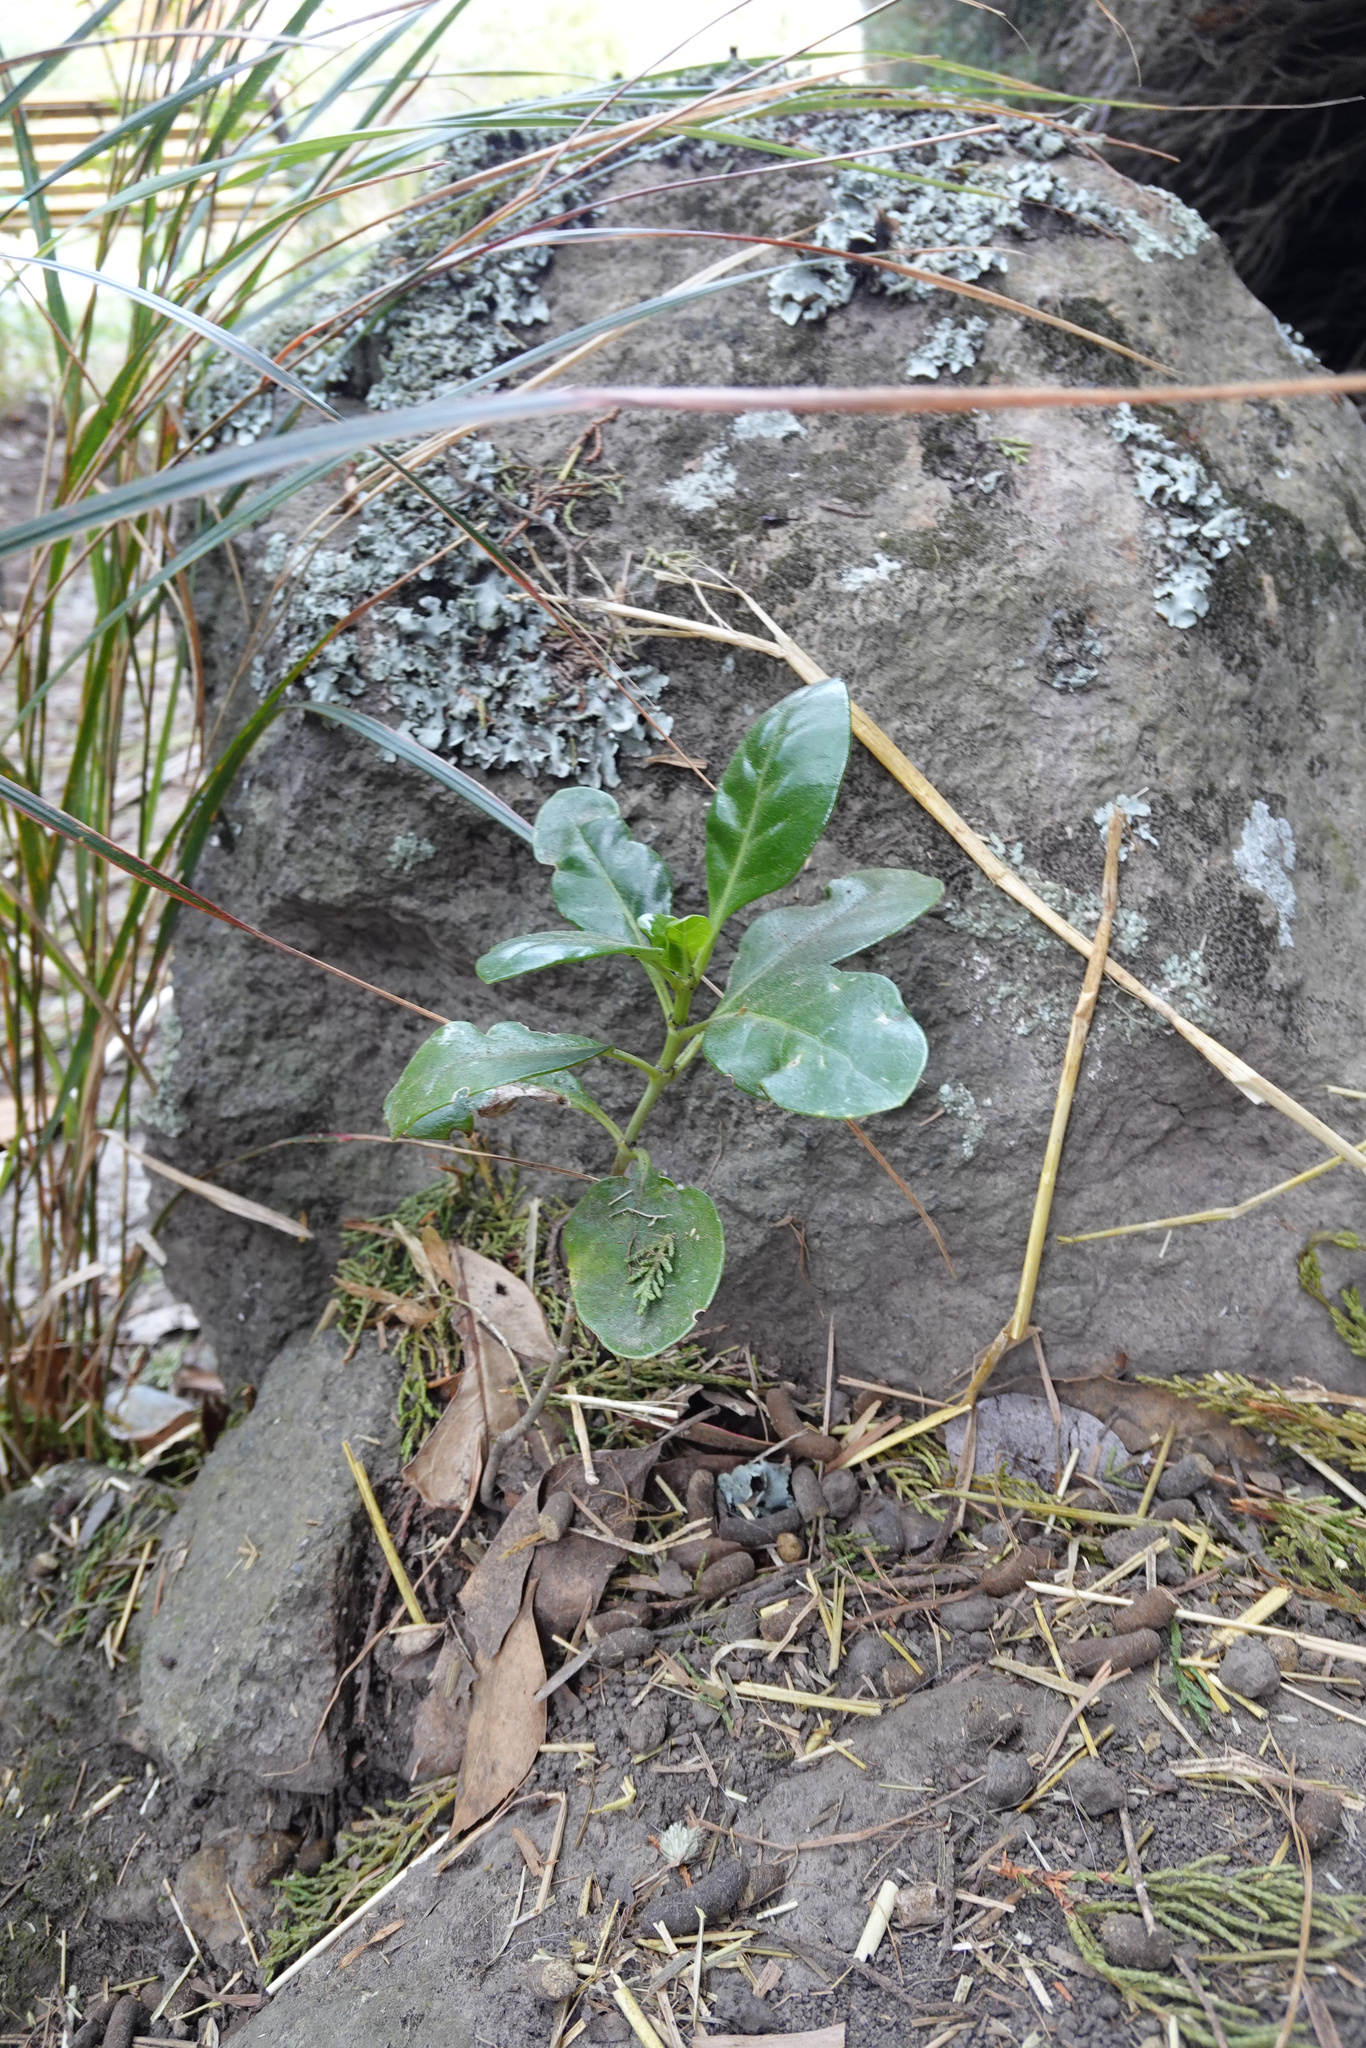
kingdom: Plantae
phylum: Tracheophyta
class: Magnoliopsida
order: Gentianales
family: Rubiaceae
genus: Coprosma
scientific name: Coprosma repens
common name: Tree bedstraw
